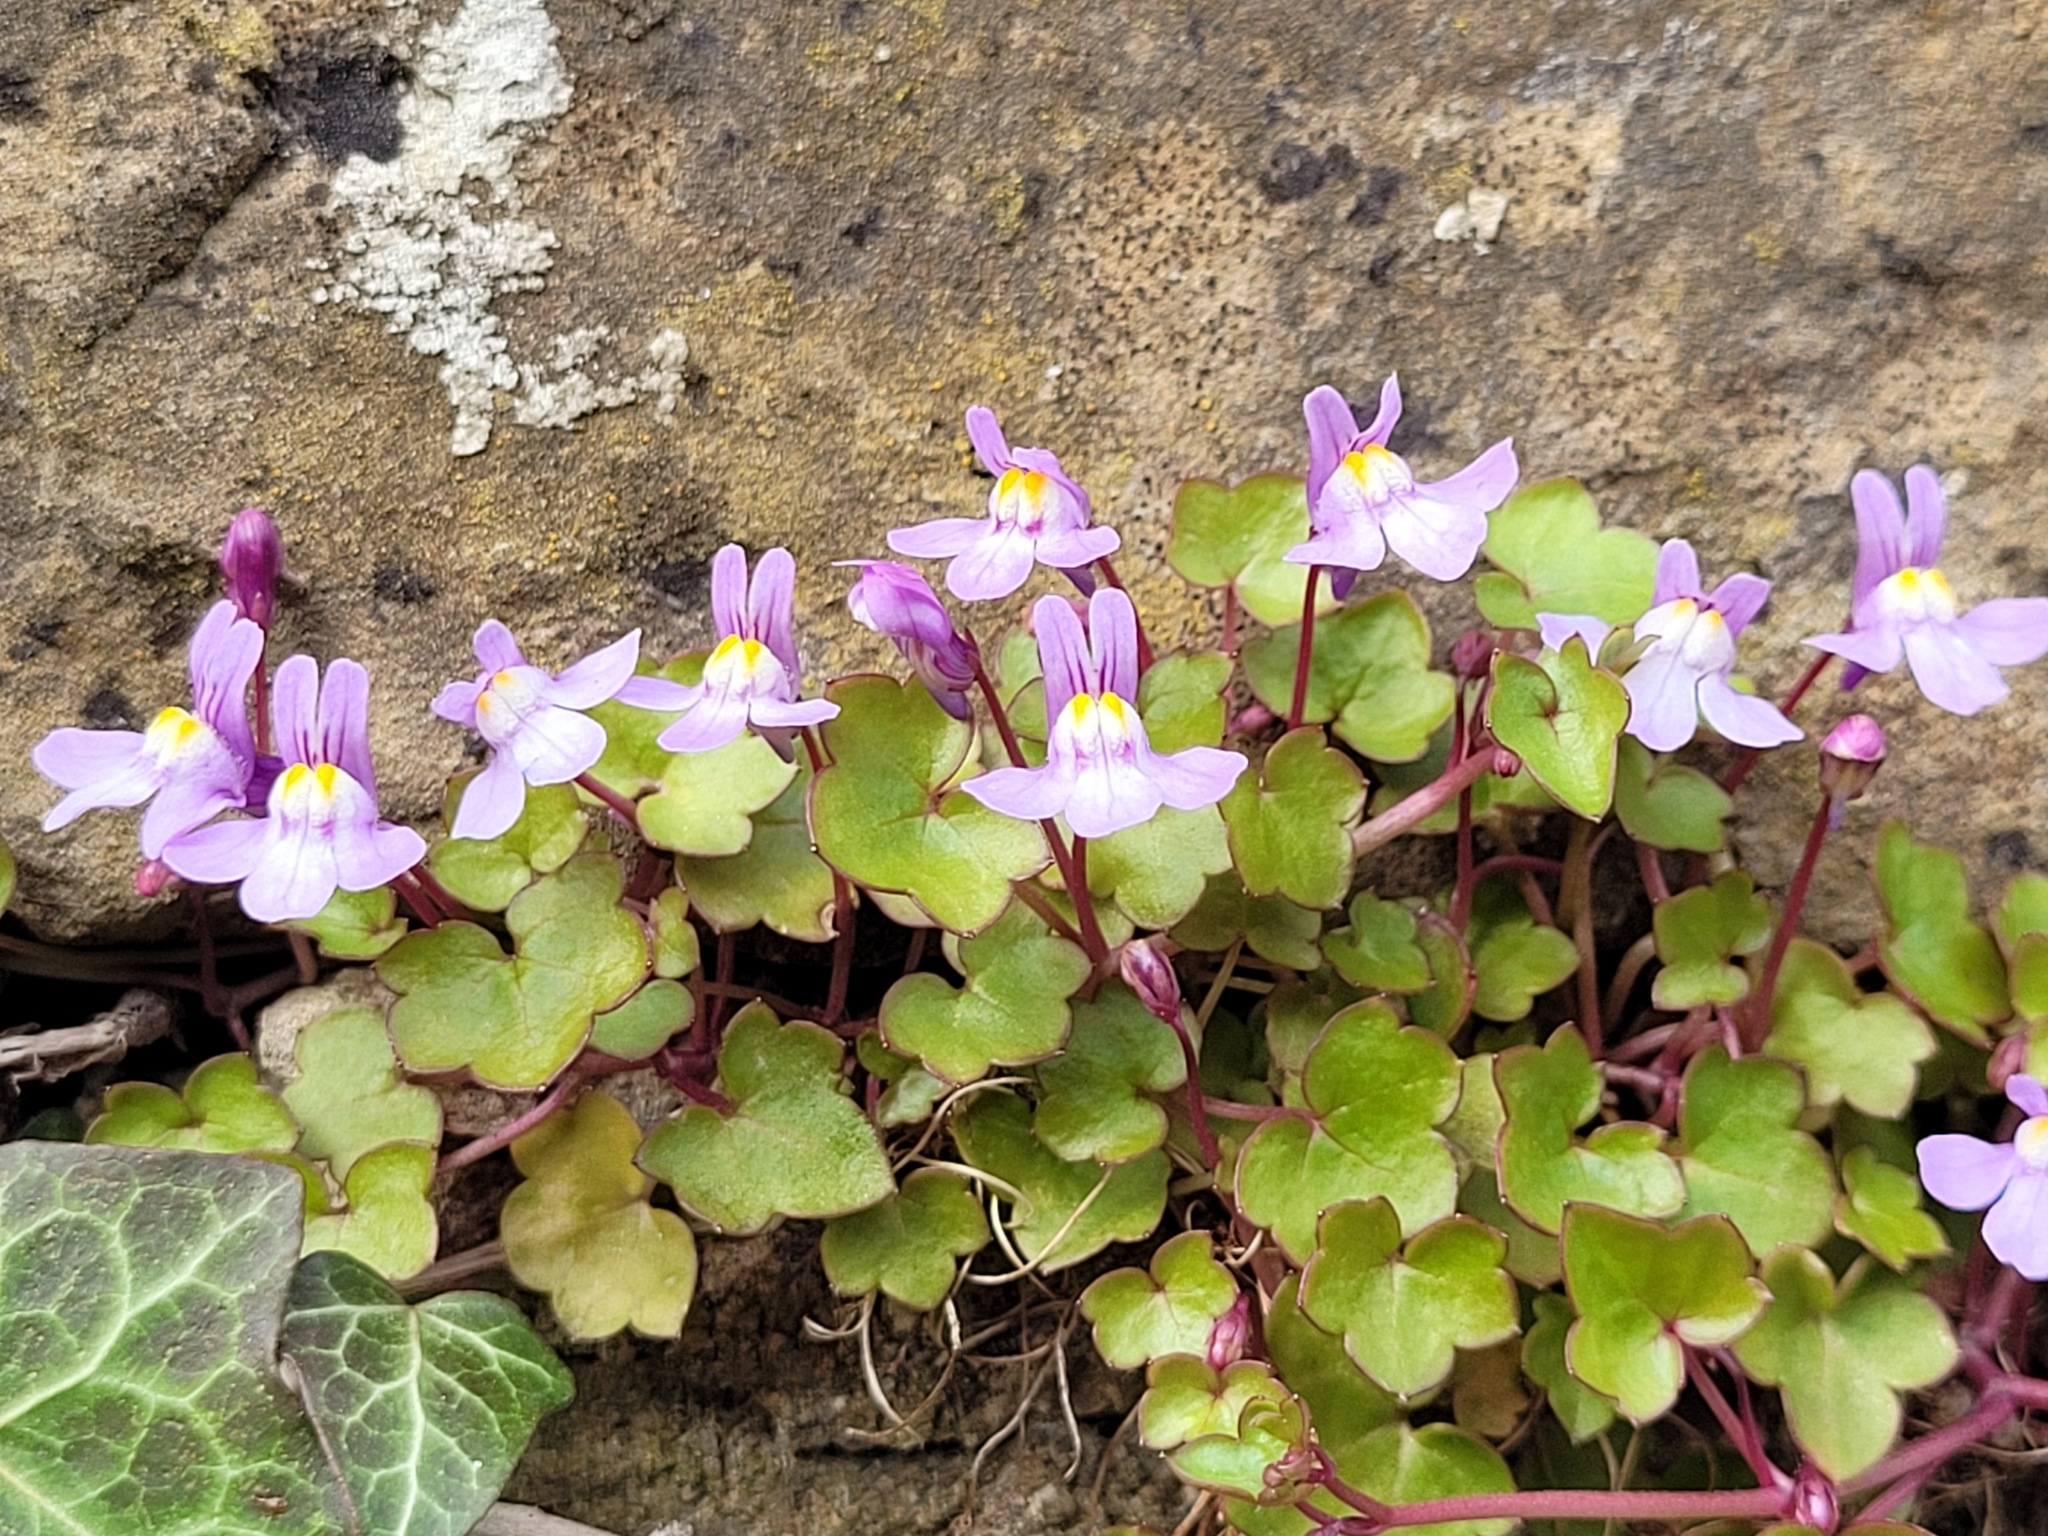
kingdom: Plantae
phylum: Tracheophyta
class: Magnoliopsida
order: Lamiales
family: Plantaginaceae
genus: Cymbalaria
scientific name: Cymbalaria muralis
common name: Ivy-leaved toadflax
